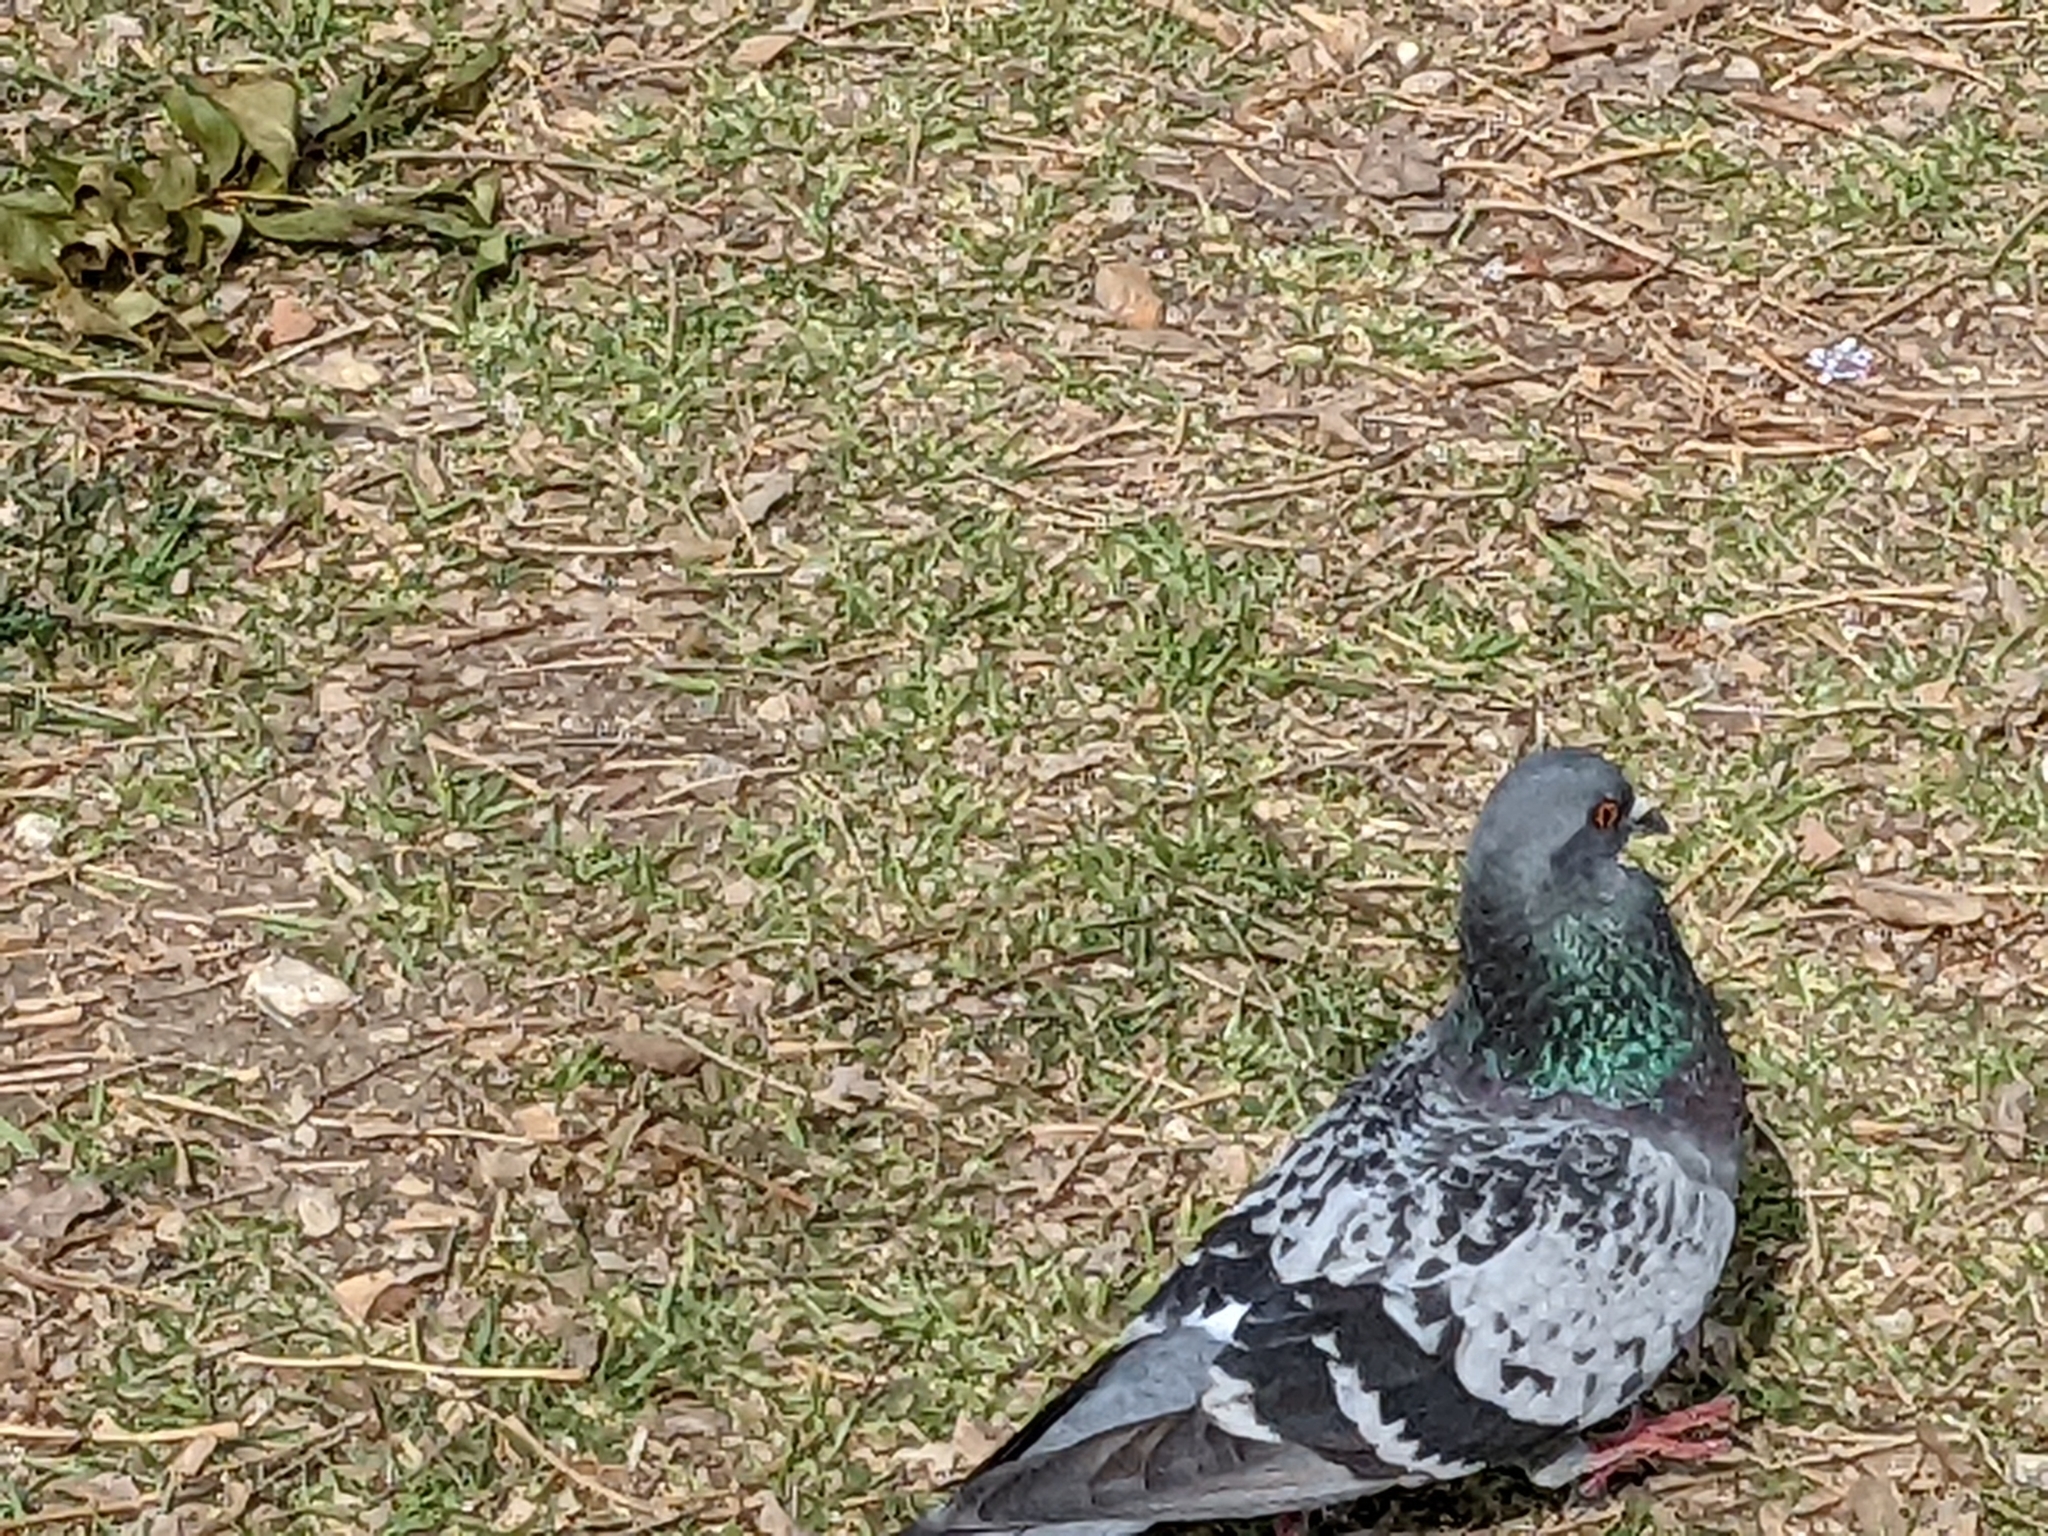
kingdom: Animalia
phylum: Chordata
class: Aves
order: Columbiformes
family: Columbidae
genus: Columba
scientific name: Columba livia
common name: Rock pigeon
